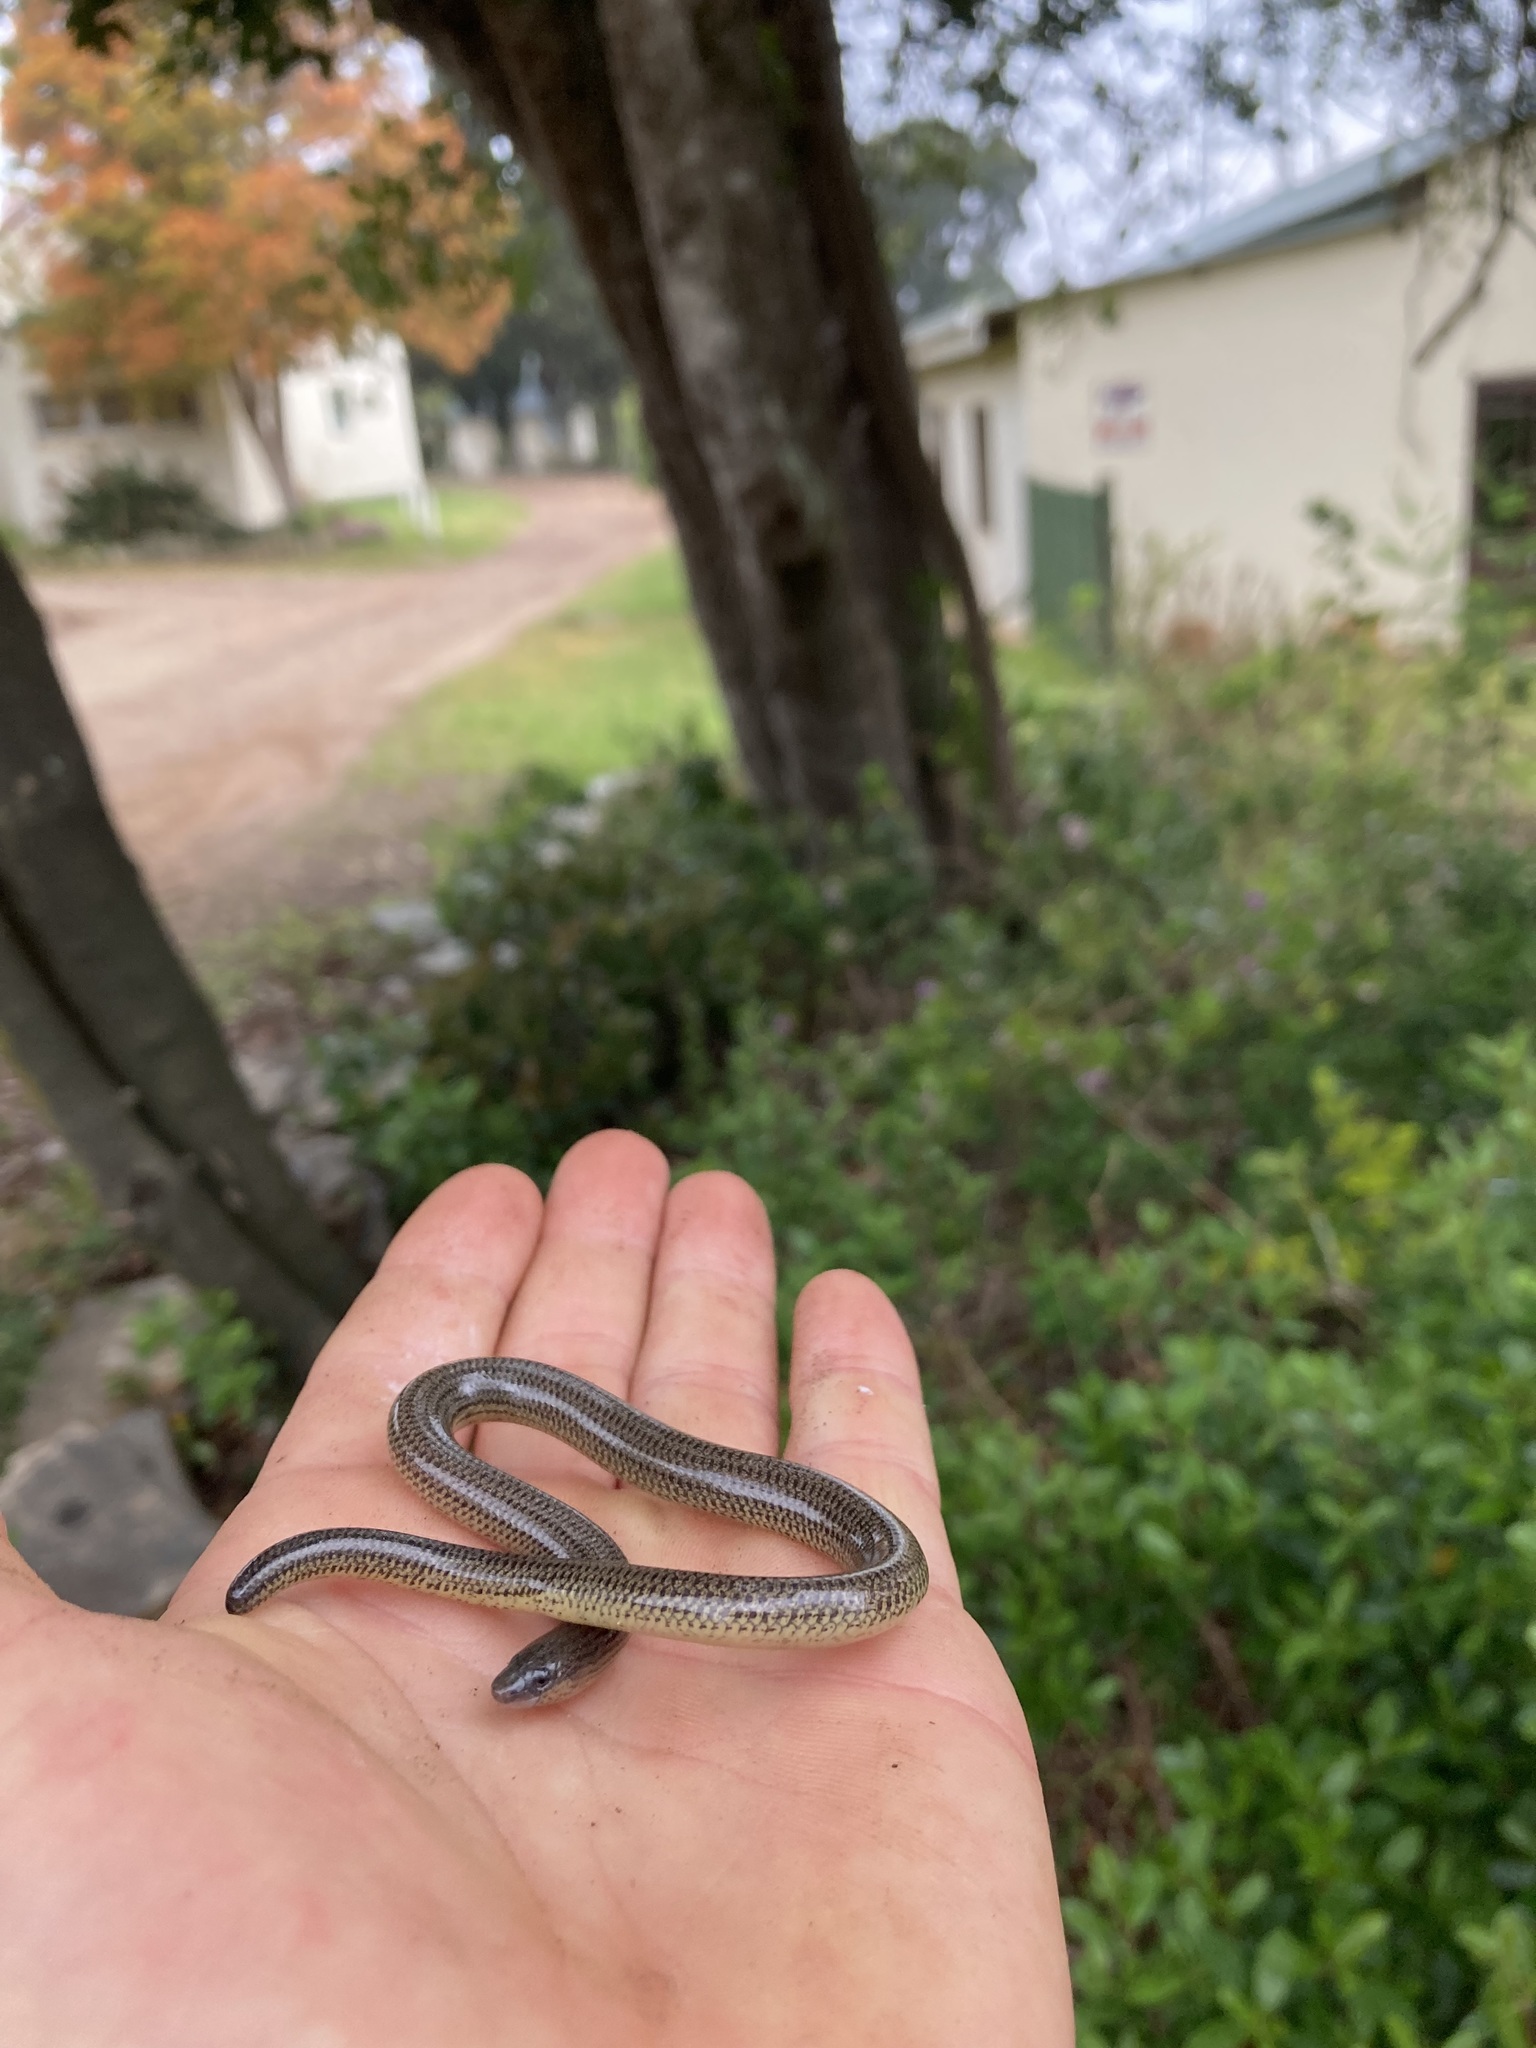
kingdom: Animalia
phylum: Chordata
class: Squamata
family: Scincidae
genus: Acontias
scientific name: Acontias meleagris
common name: Cape legless skink
